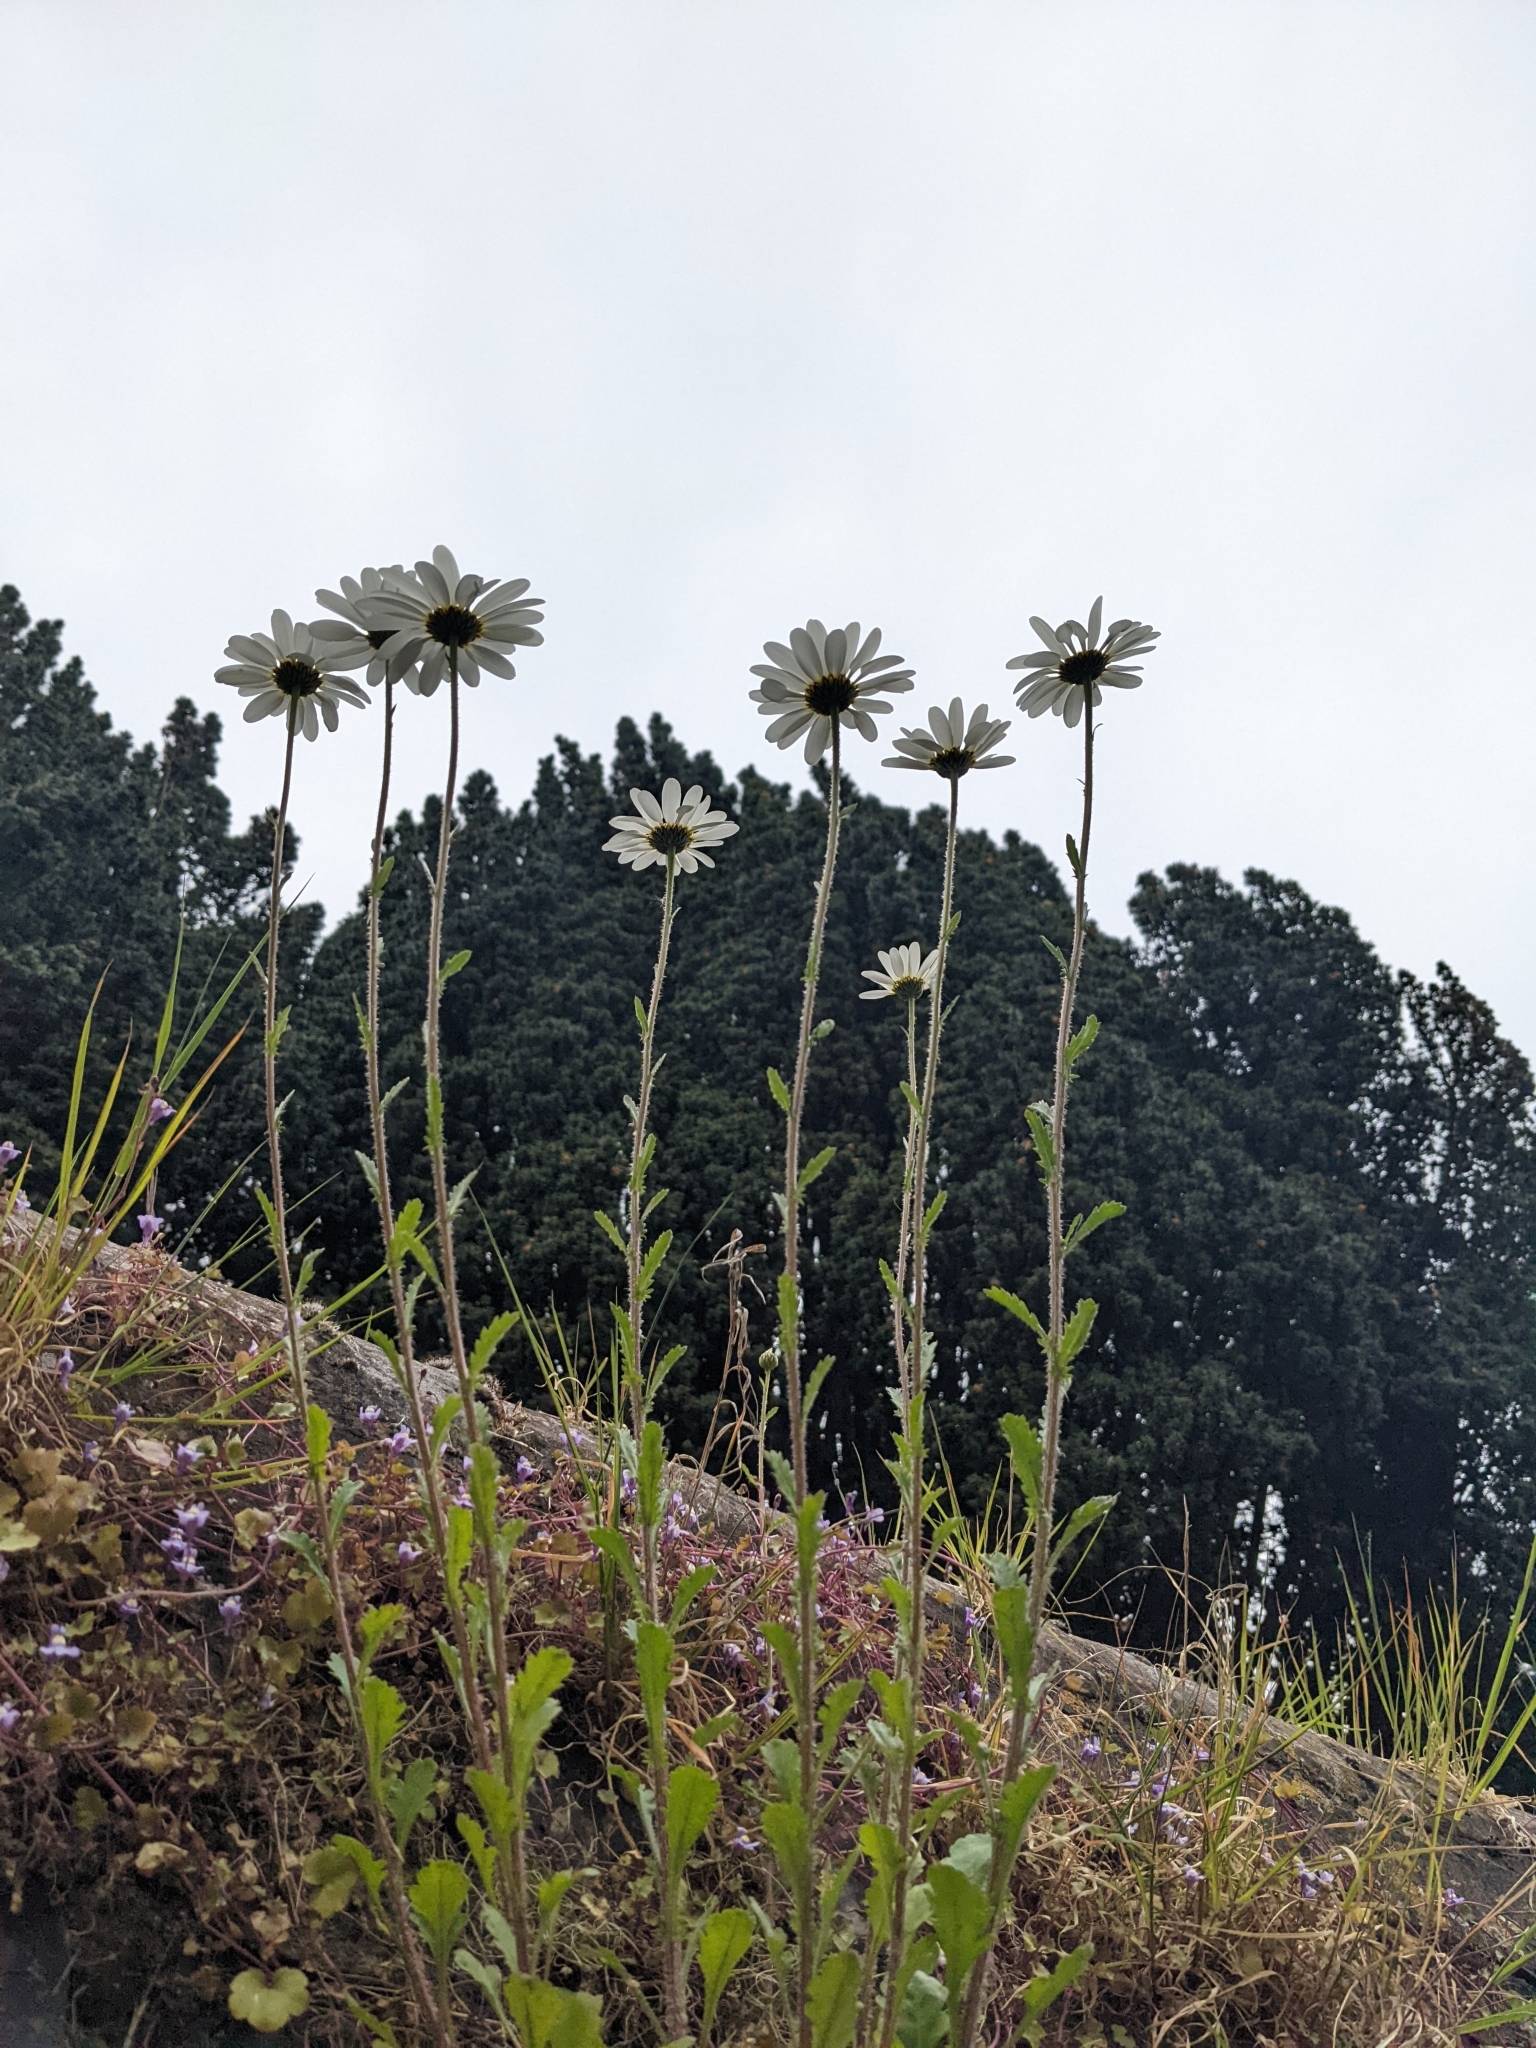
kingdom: Plantae
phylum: Tracheophyta
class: Magnoliopsida
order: Asterales
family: Asteraceae
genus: Leucanthemum
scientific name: Leucanthemum vulgare
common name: Oxeye daisy
